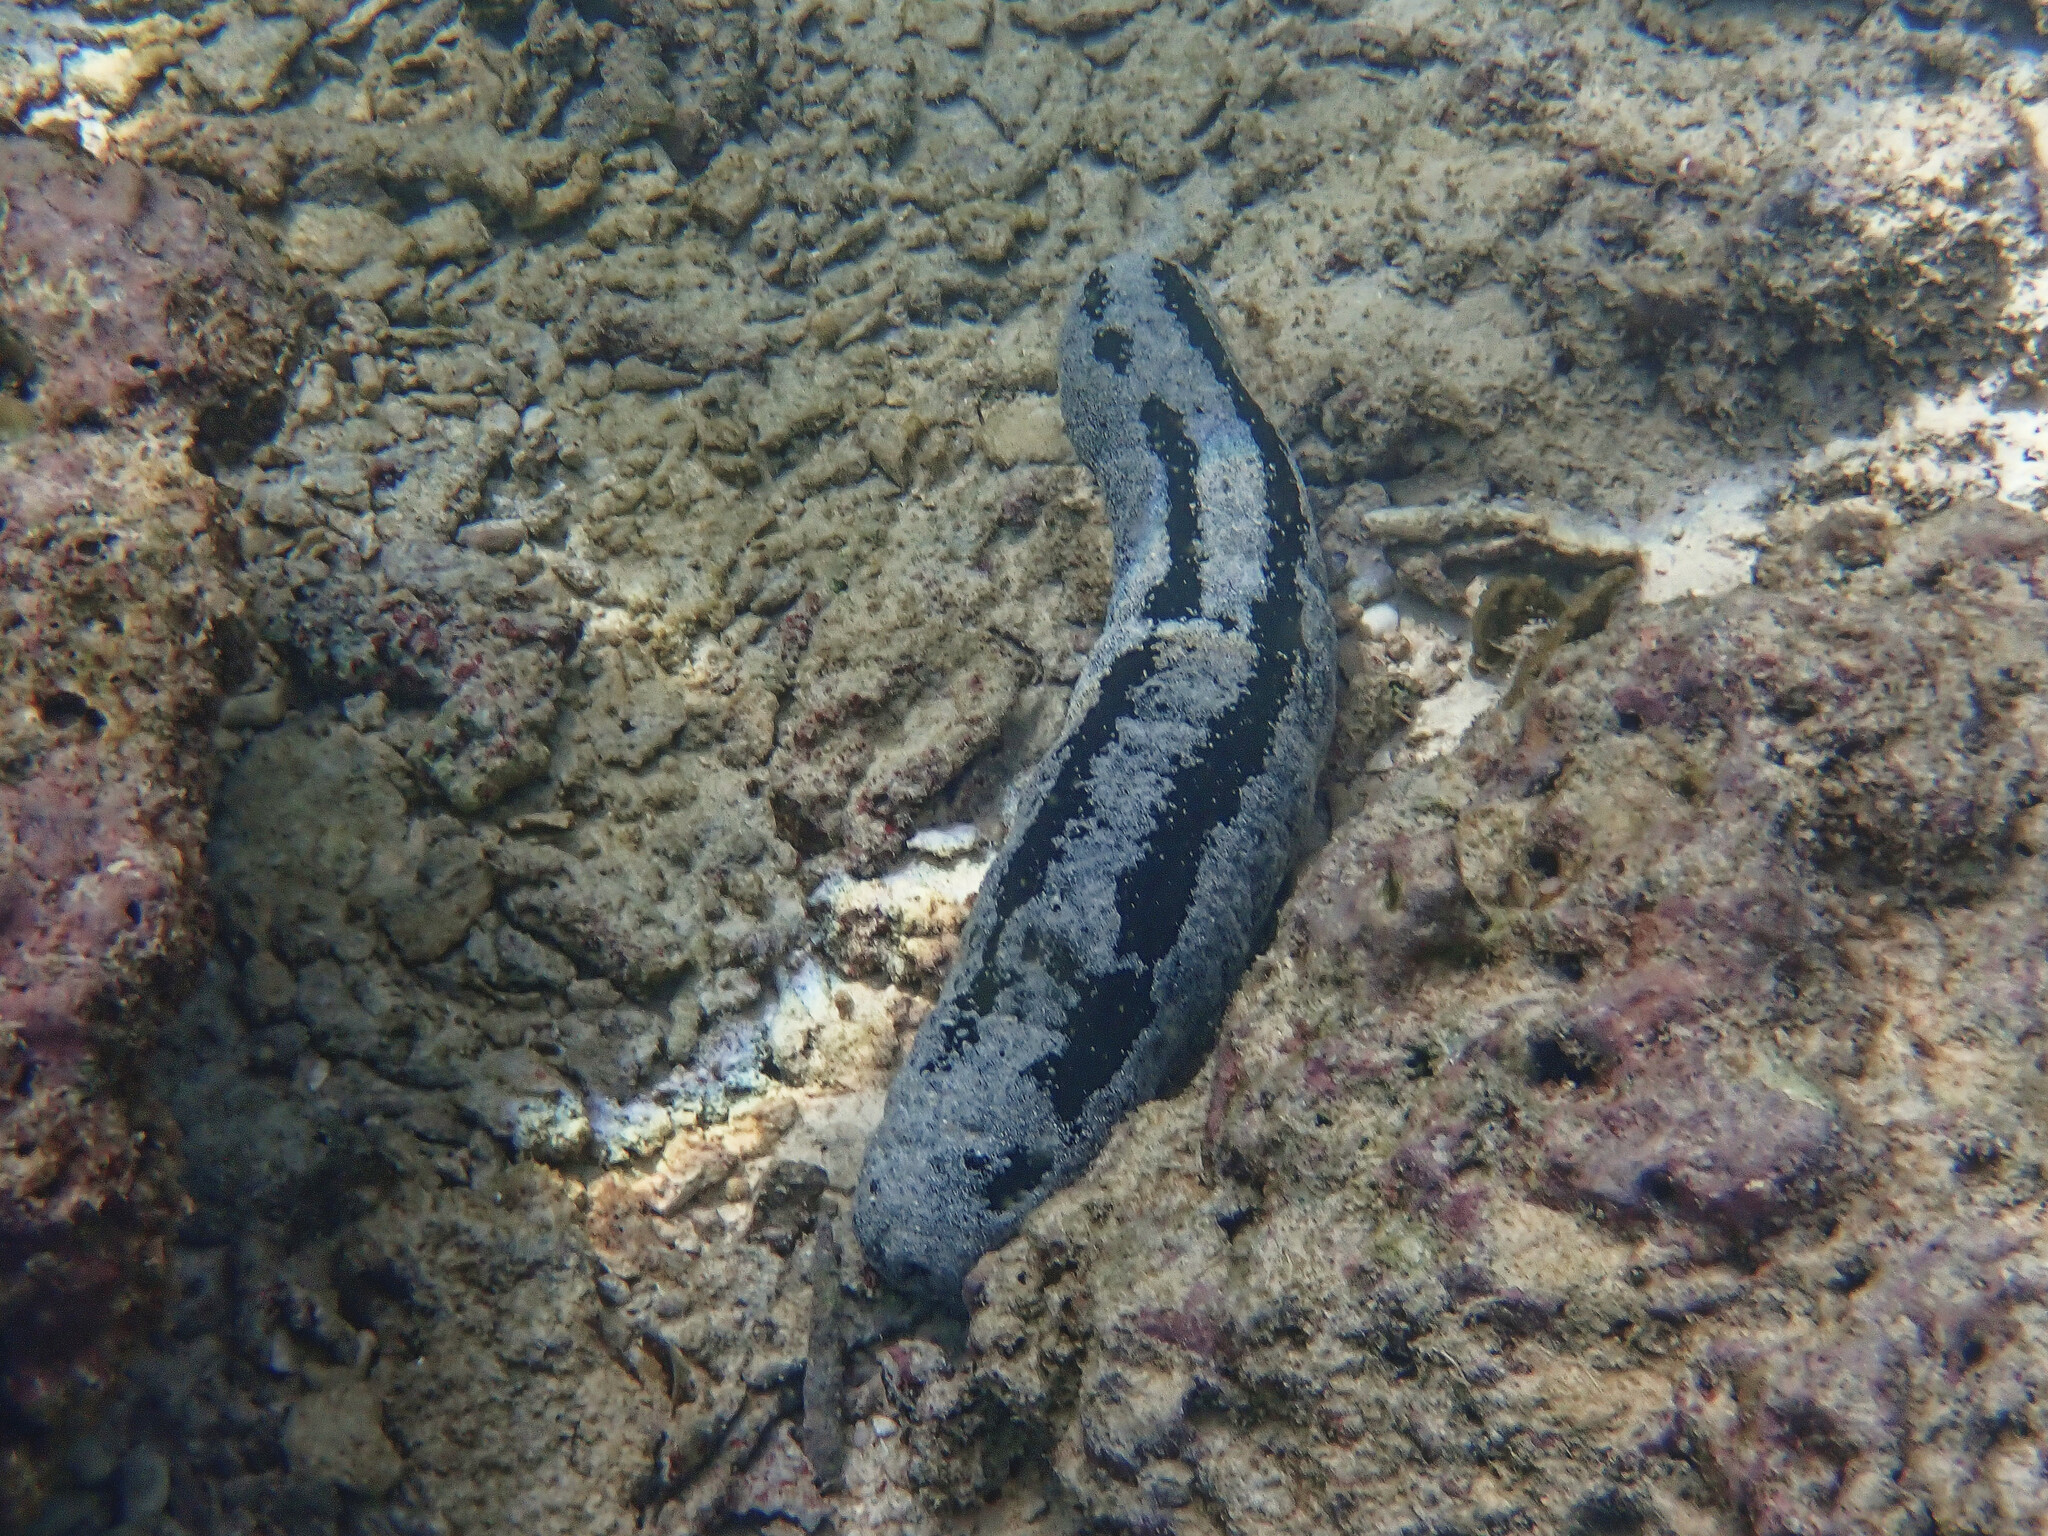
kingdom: Animalia
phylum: Echinodermata
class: Holothuroidea
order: Holothuriida
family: Holothuriidae
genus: Holothuria
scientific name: Holothuria atra
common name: Lollyfish
